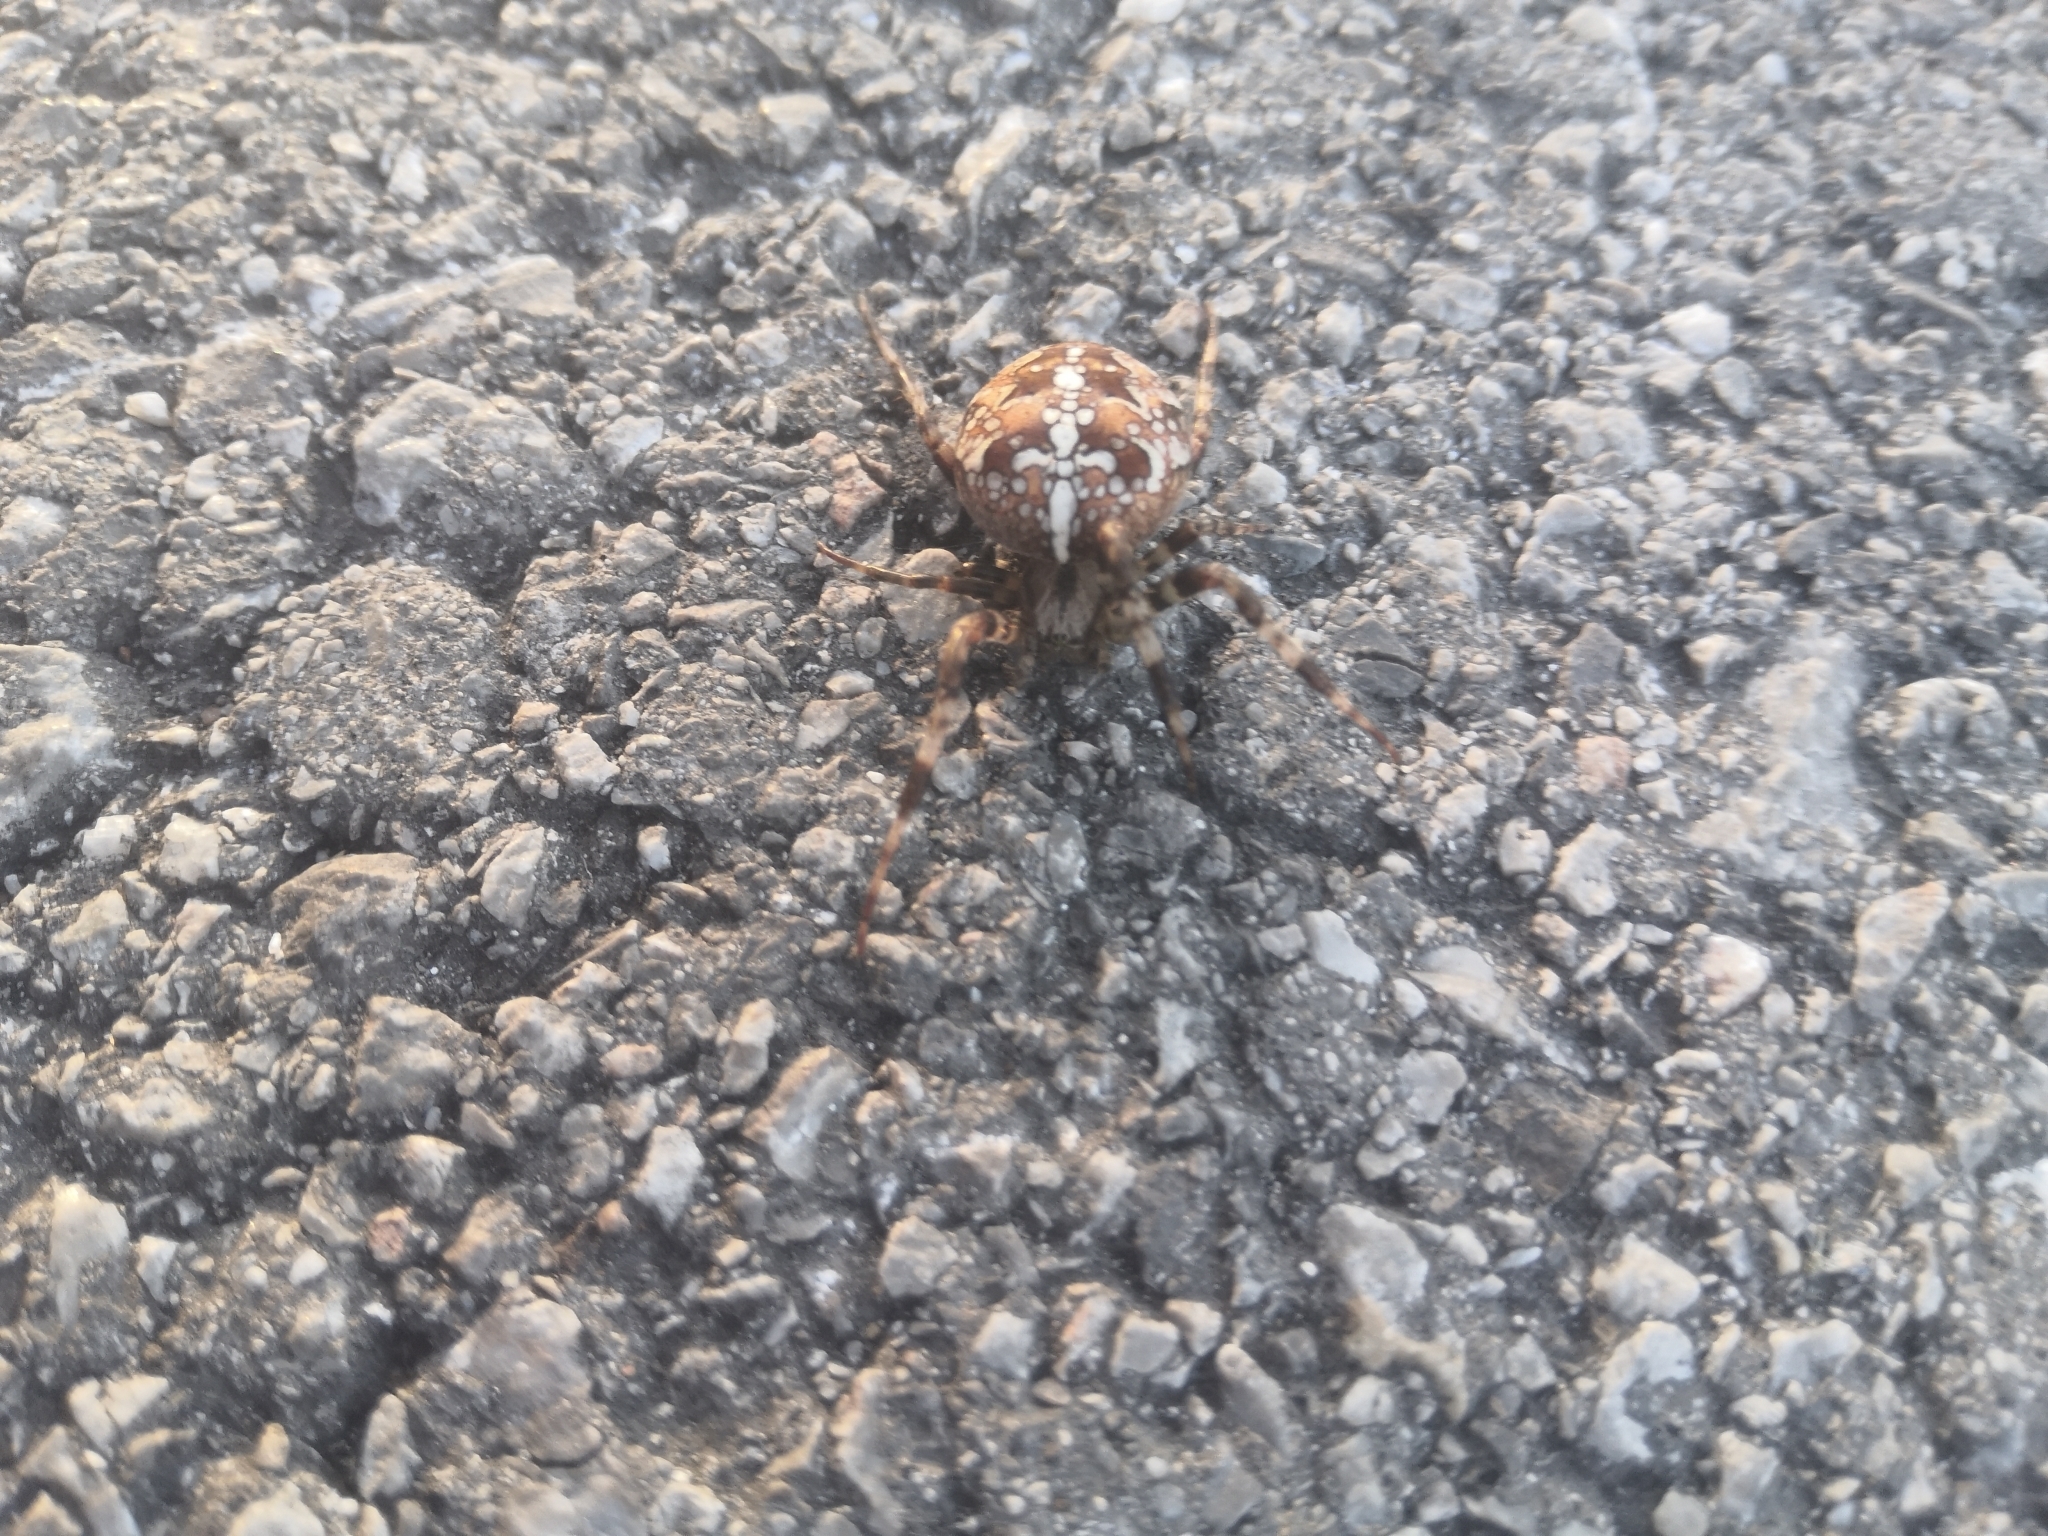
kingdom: Animalia
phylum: Arthropoda
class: Arachnida
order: Araneae
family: Araneidae
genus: Araneus
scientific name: Araneus diadematus
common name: Cross orbweaver
